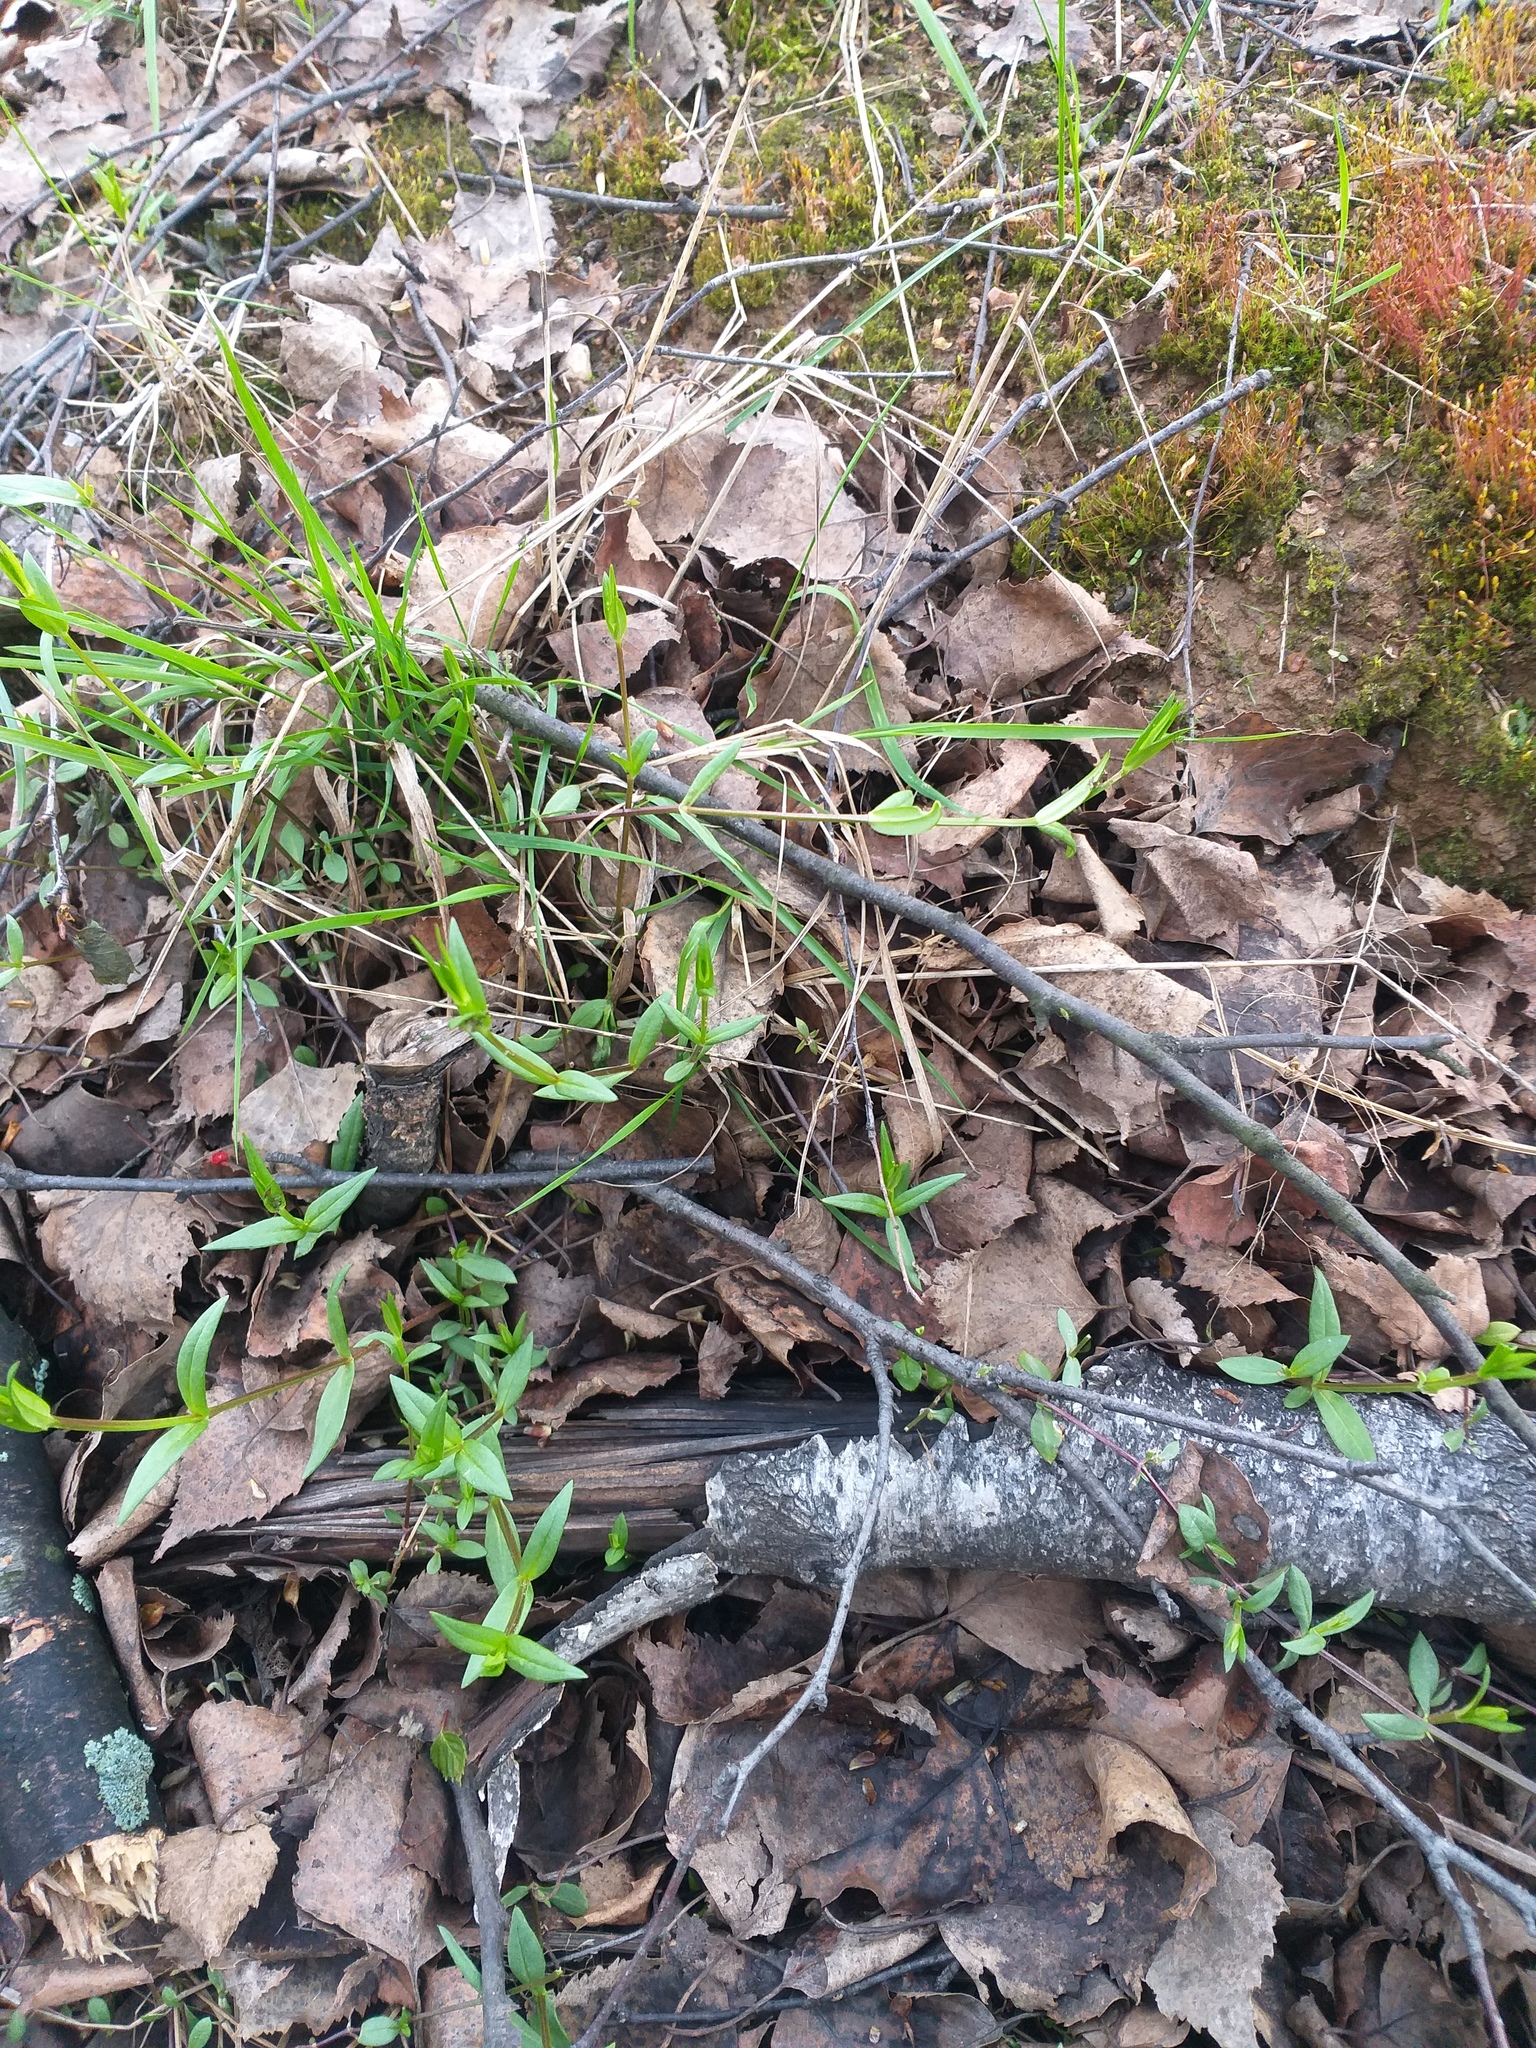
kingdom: Plantae
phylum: Tracheophyta
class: Magnoliopsida
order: Caryophyllales
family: Caryophyllaceae
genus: Stellaria
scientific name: Stellaria graminea
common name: Grass-like starwort
